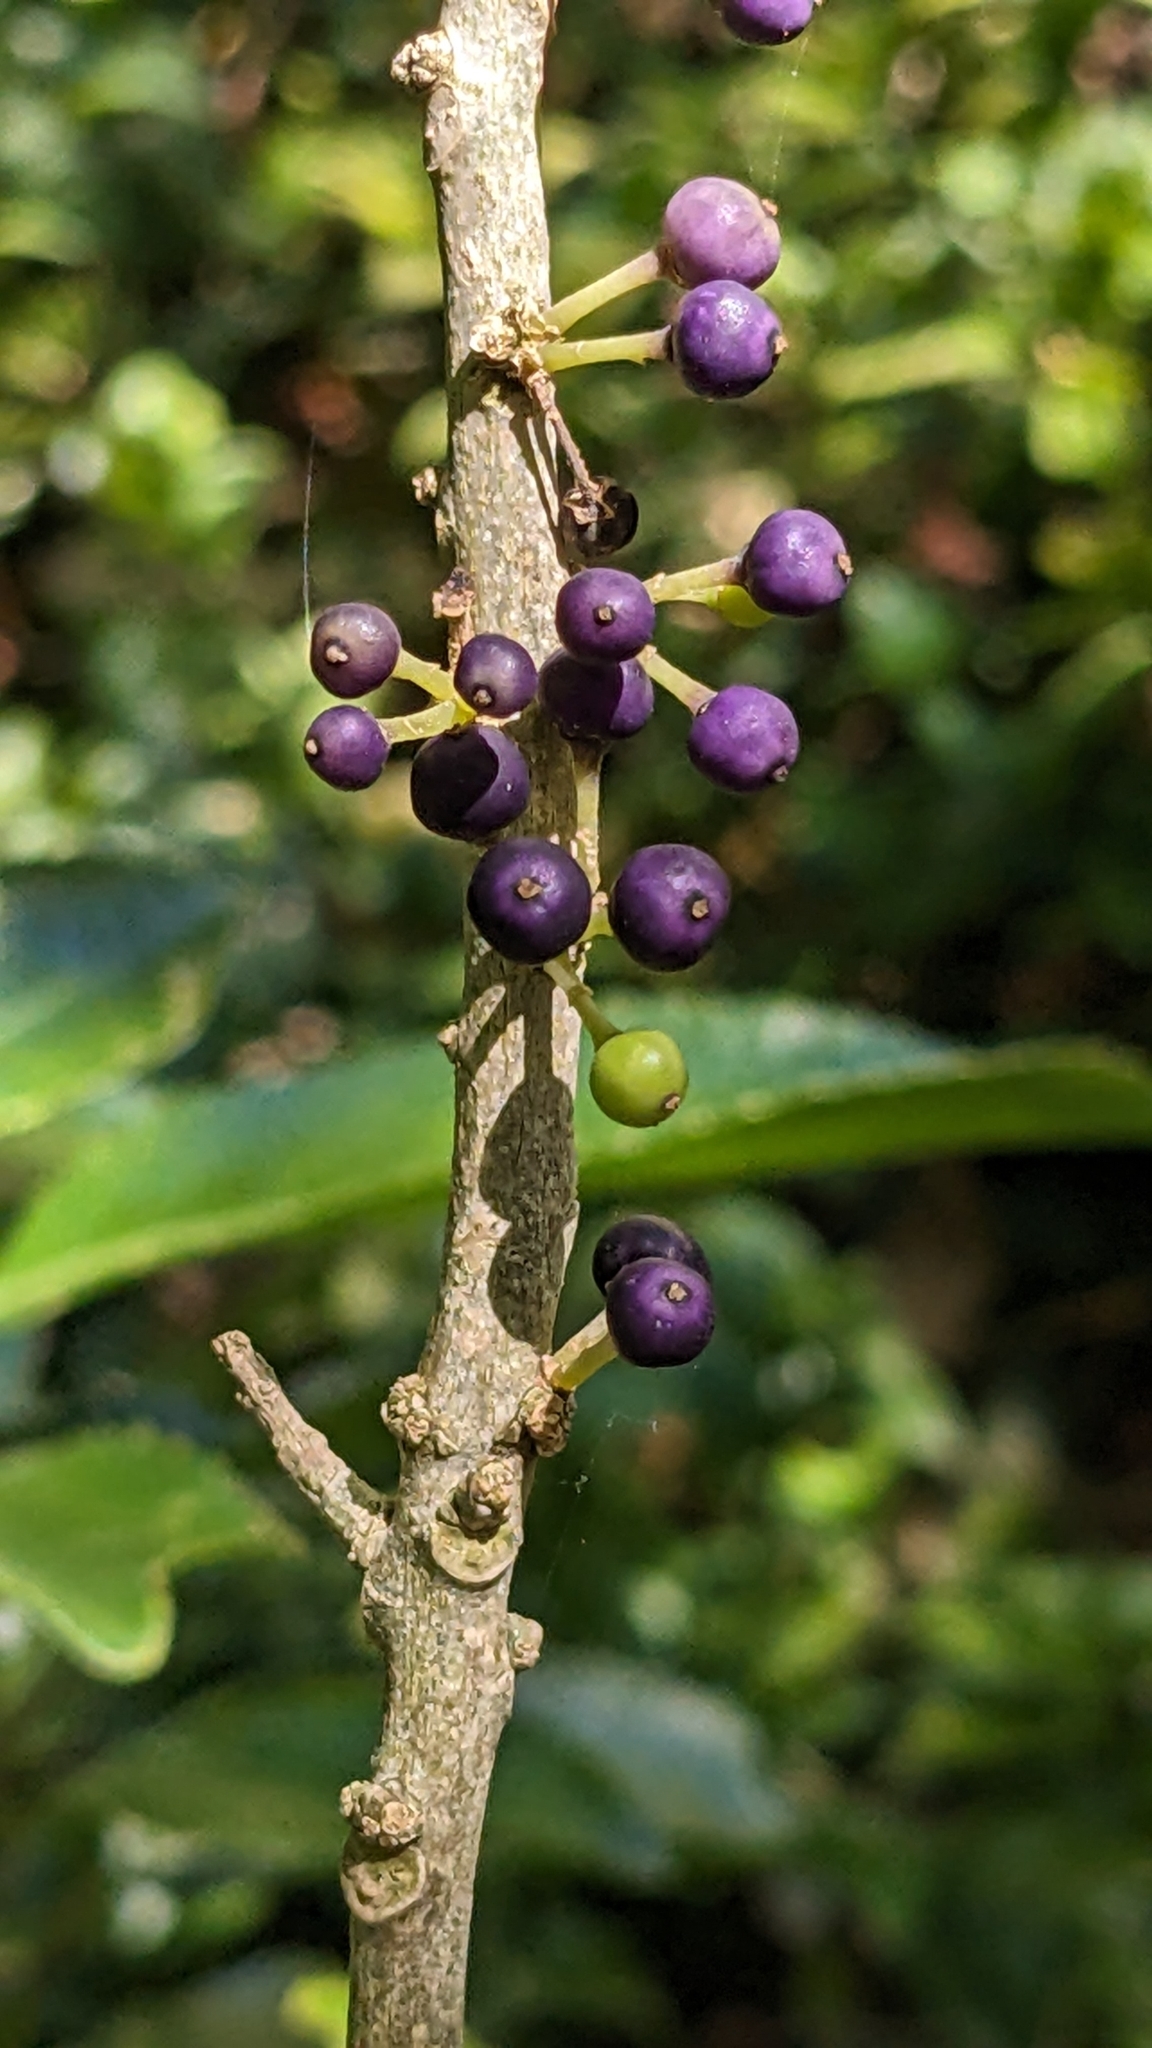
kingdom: Plantae
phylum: Tracheophyta
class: Magnoliopsida
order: Malpighiales
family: Violaceae
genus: Melicytus
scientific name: Melicytus ramiflorus
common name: Mahoe
